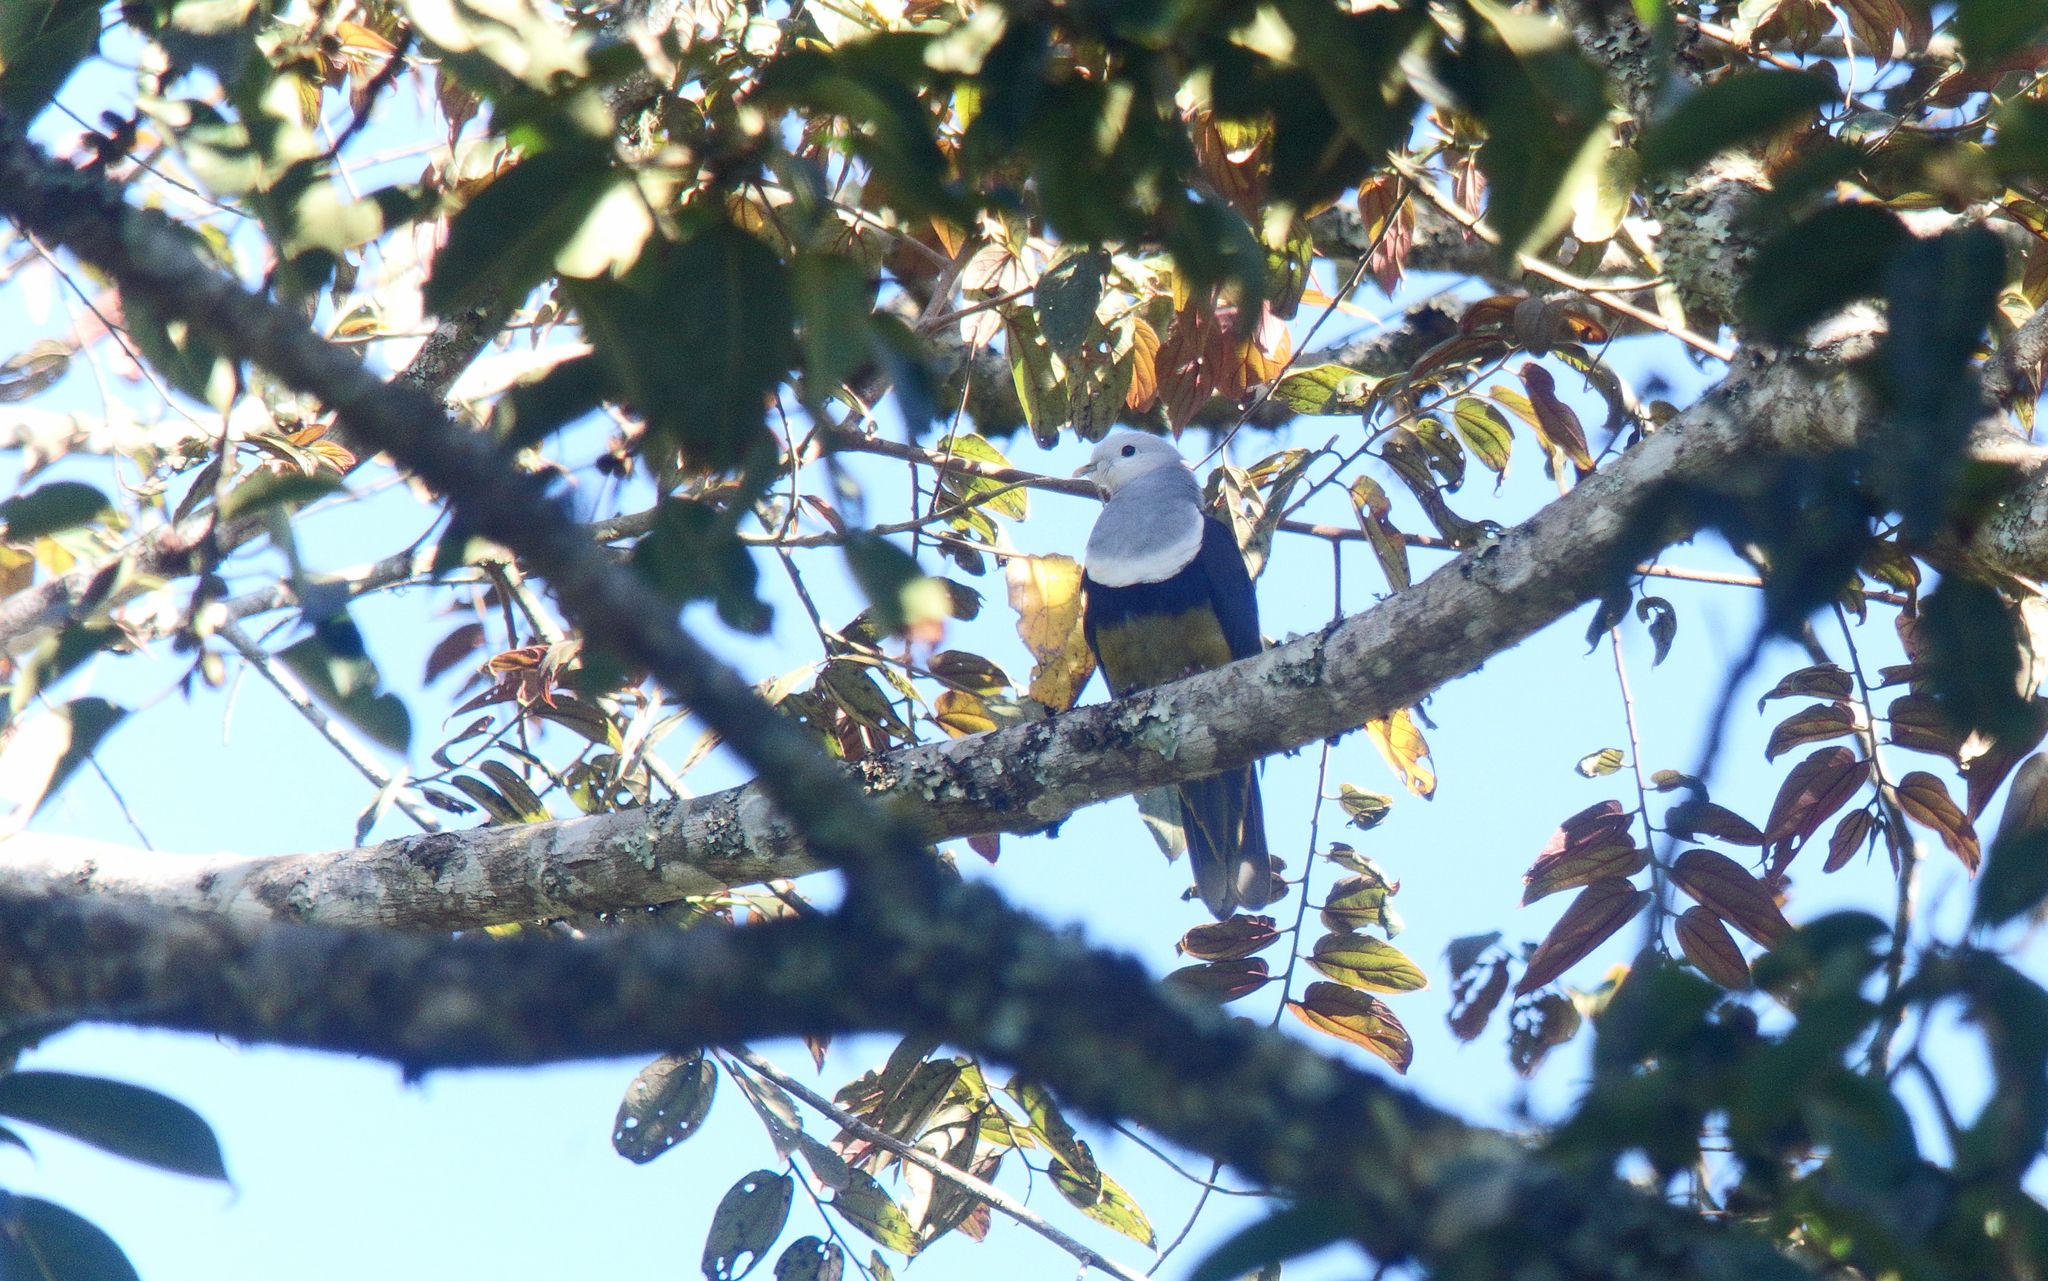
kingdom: Animalia
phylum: Chordata
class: Aves
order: Columbiformes
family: Columbidae
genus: Ptilinopus
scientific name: Ptilinopus cinctus
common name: Banded fruit dove
